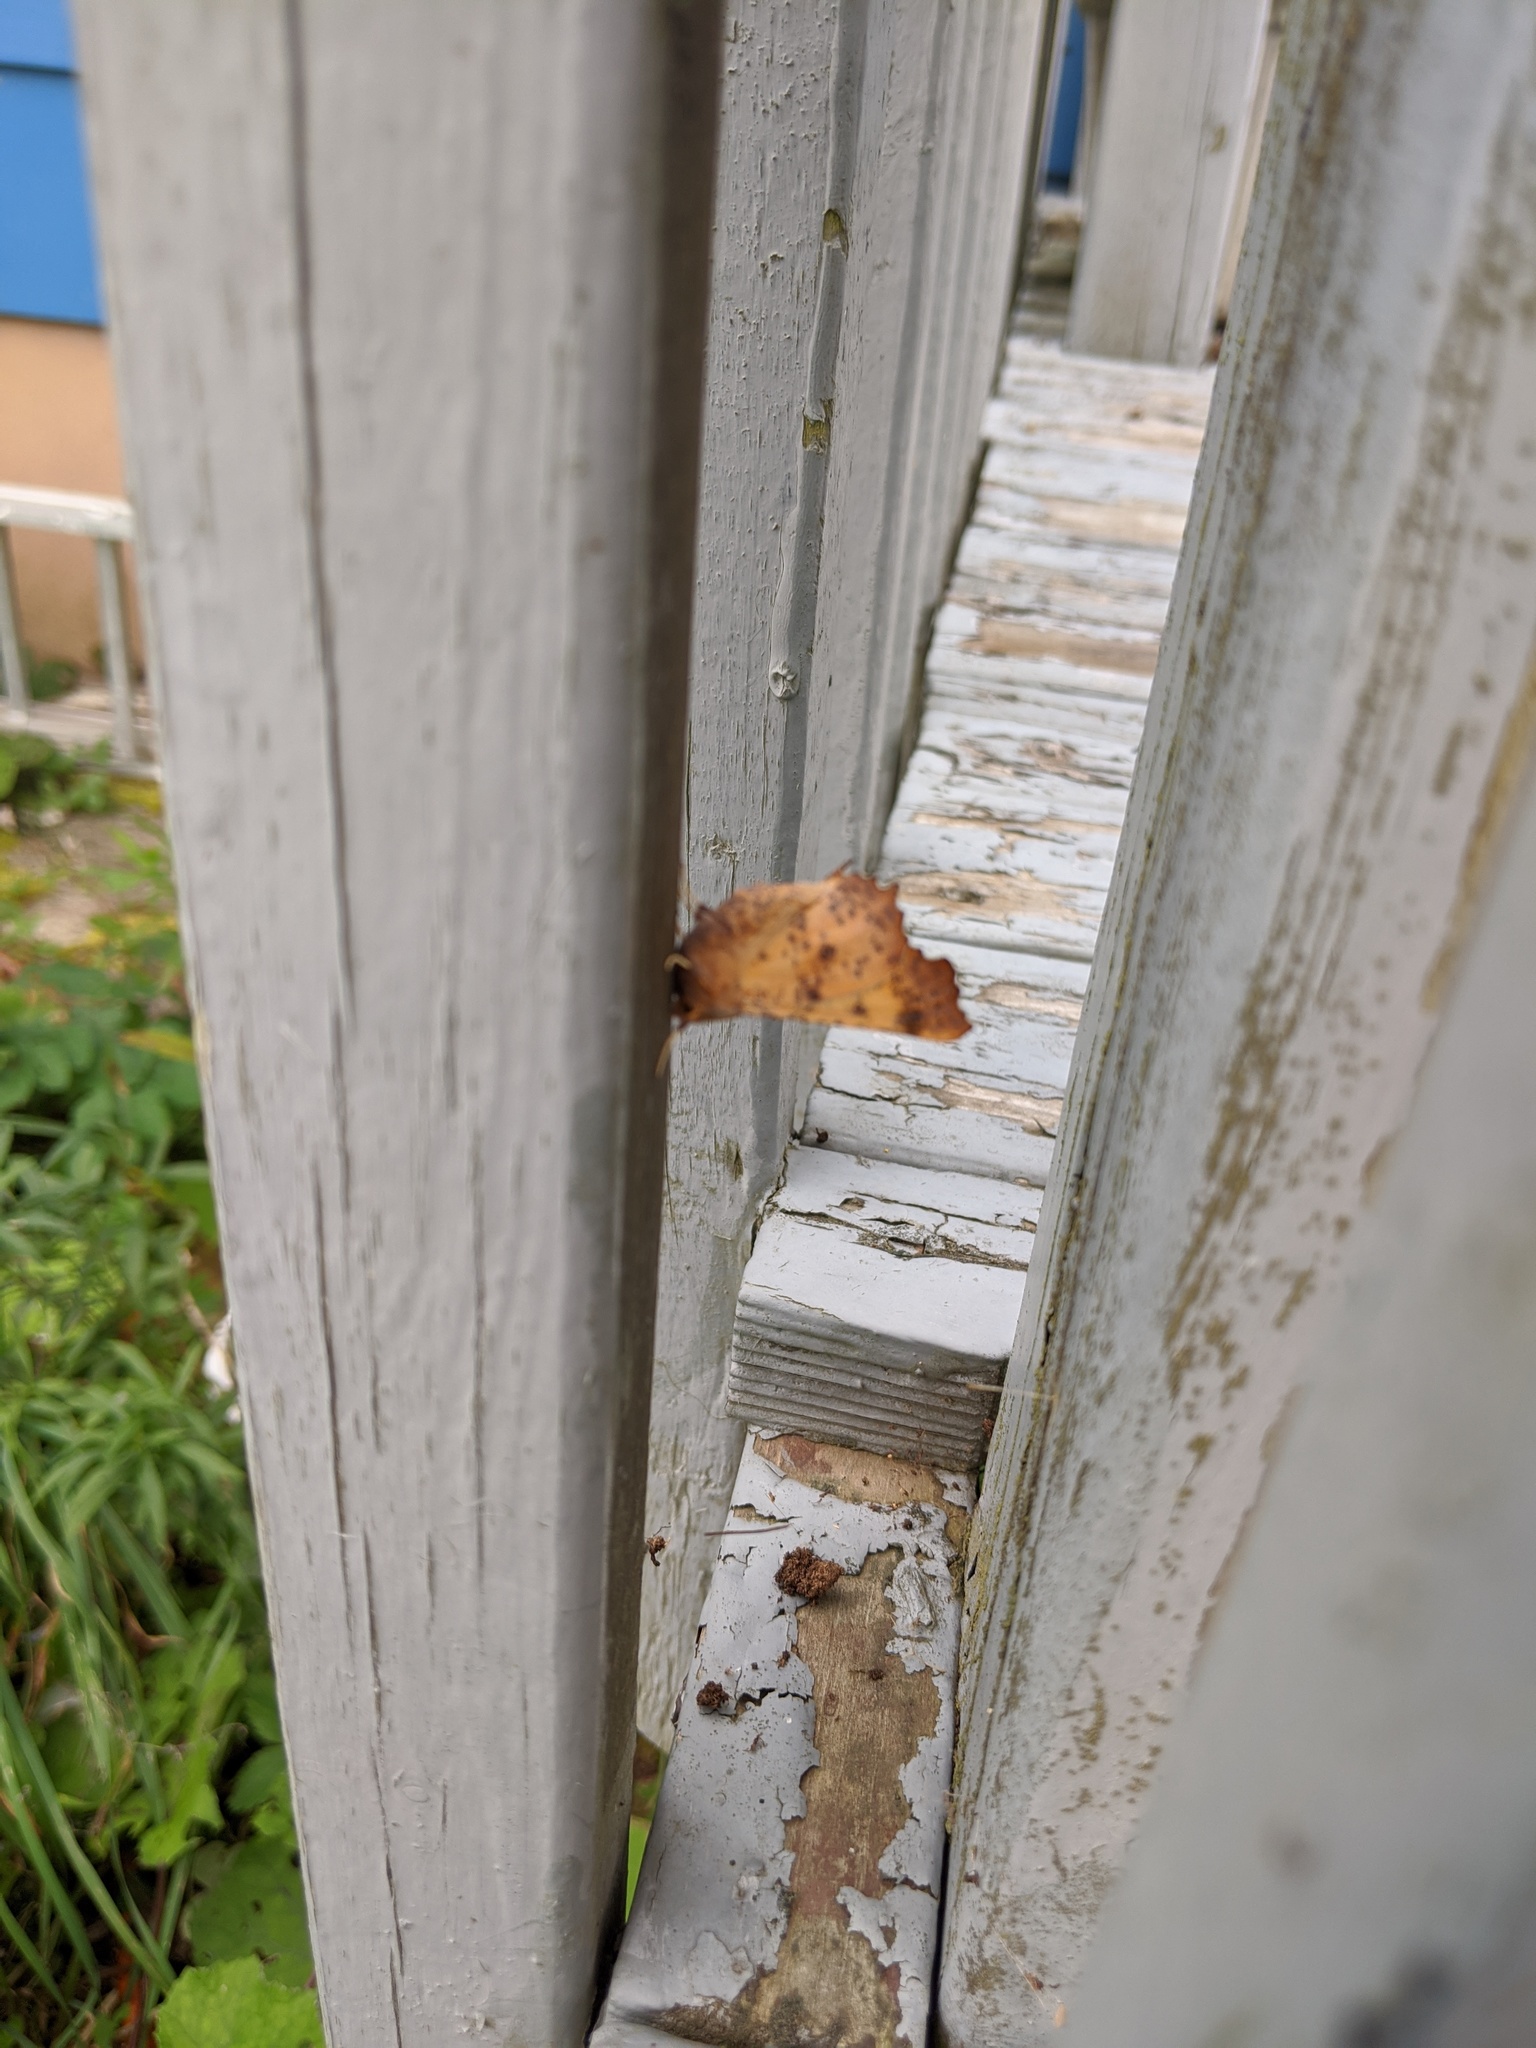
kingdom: Animalia
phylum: Arthropoda
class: Insecta
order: Lepidoptera
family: Geometridae
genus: Ennomos
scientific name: Ennomos magnaria
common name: Maple spanworm
